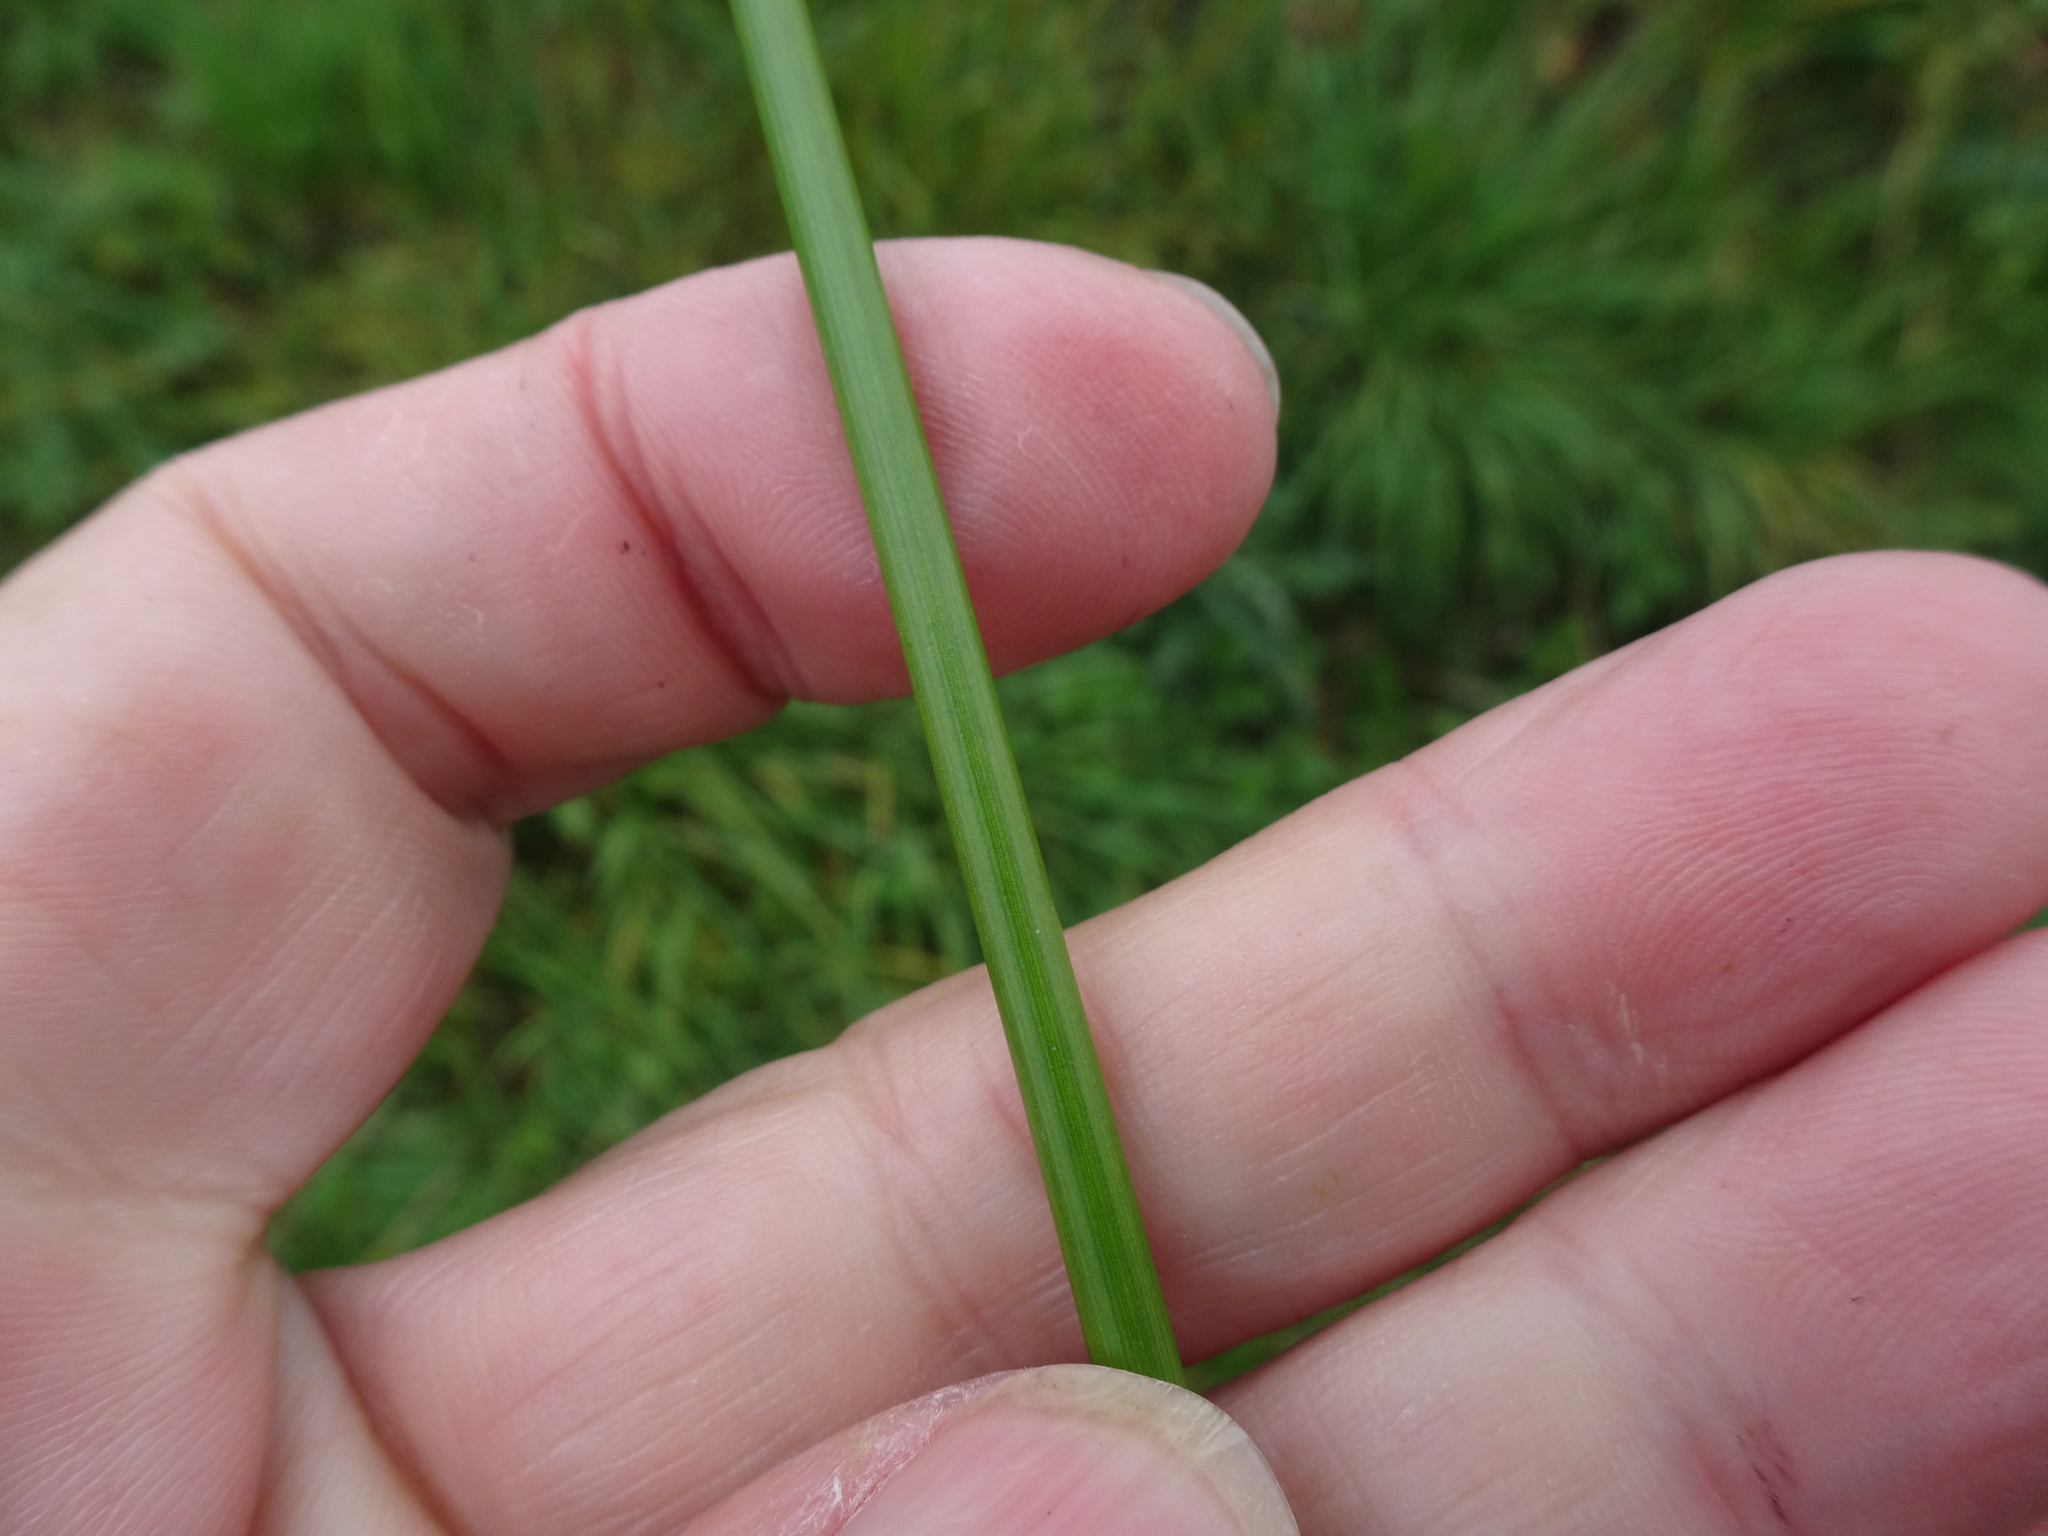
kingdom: Plantae
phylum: Tracheophyta
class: Liliopsida
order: Poales
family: Juncaceae
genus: Juncus
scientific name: Juncus effusus
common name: Soft rush
